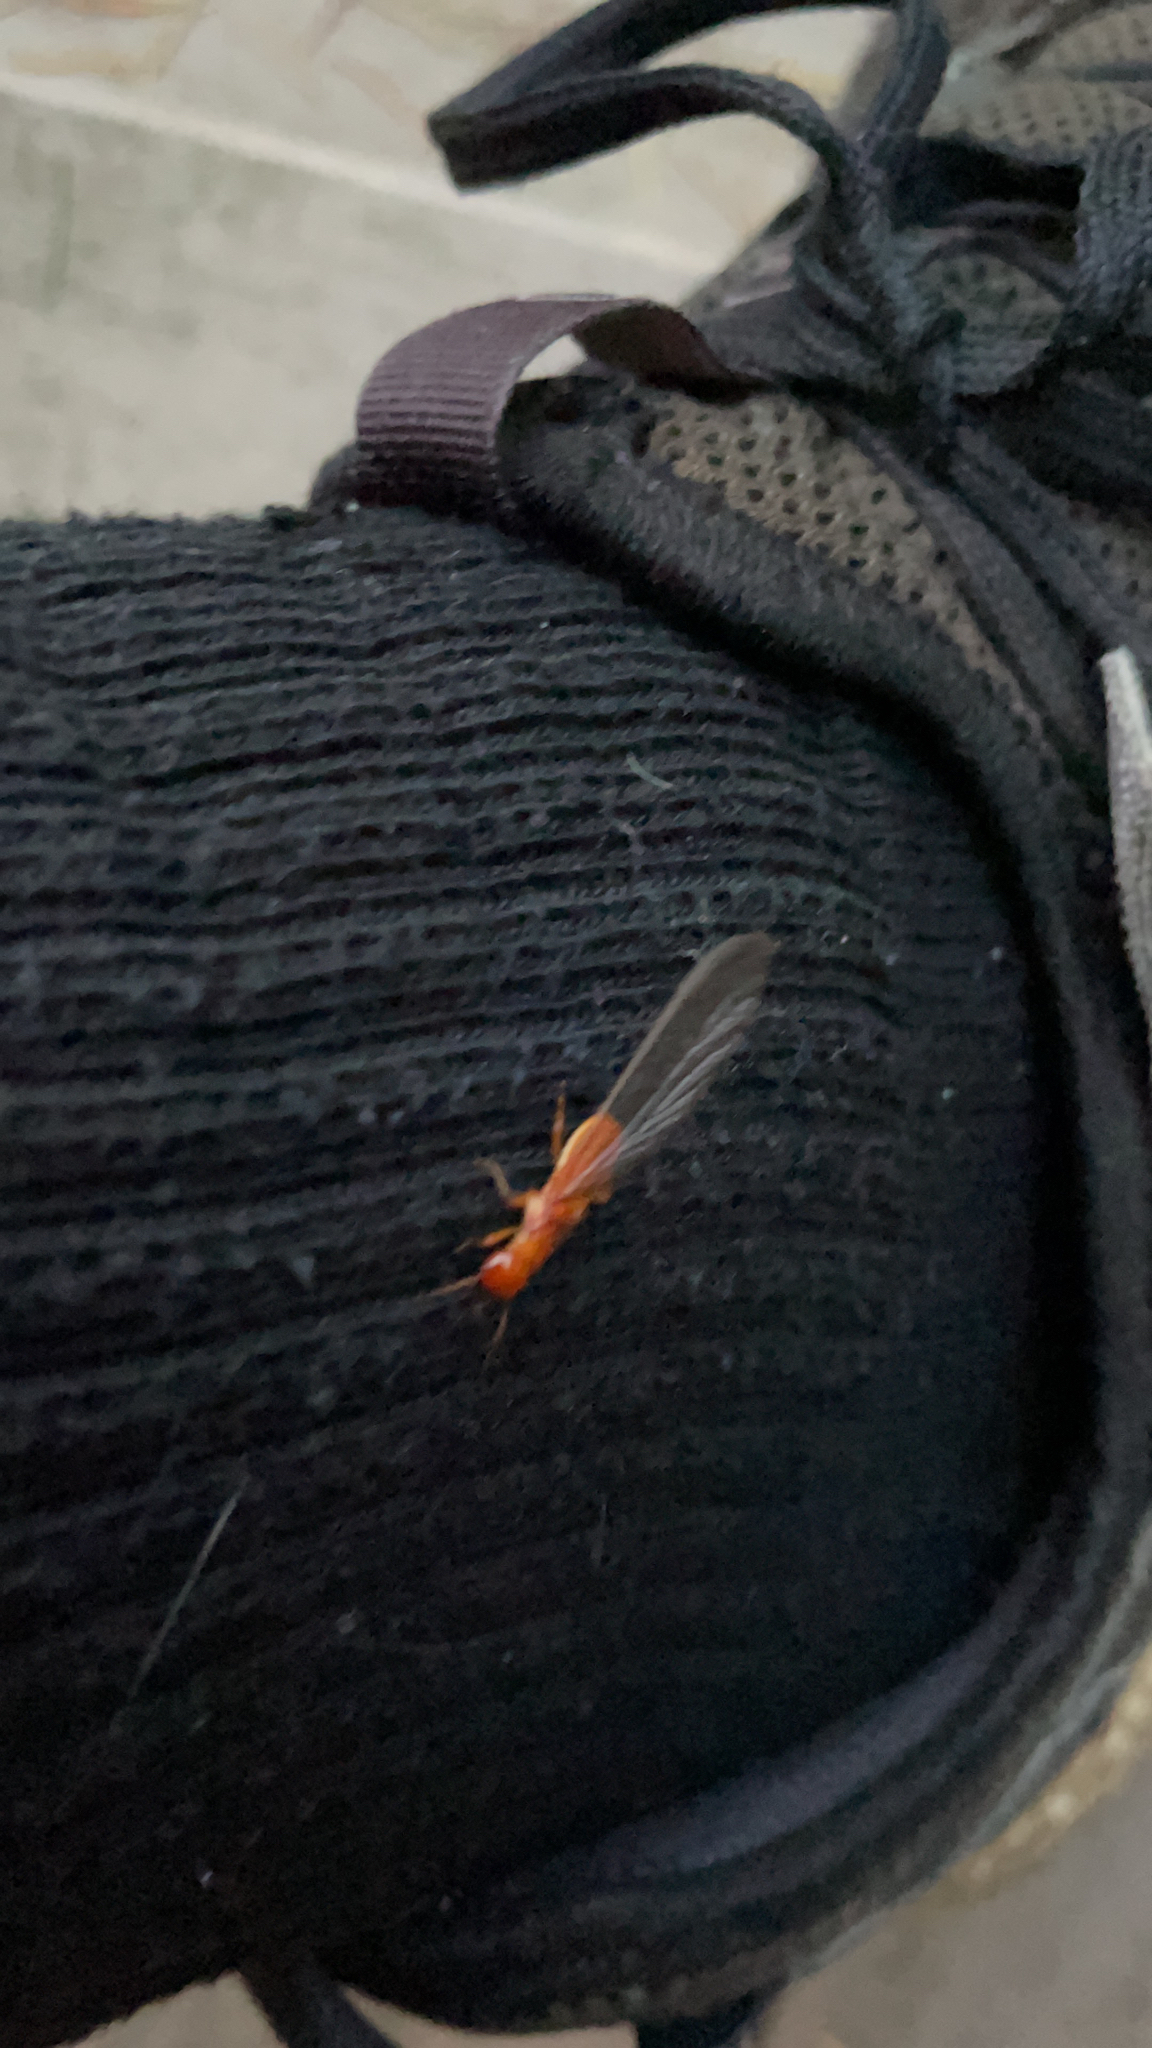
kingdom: Animalia
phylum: Arthropoda
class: Insecta
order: Blattodea
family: Archotermopsidae
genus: Zootermopsis
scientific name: Zootermopsis angusticollis
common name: Rottenwood termite
